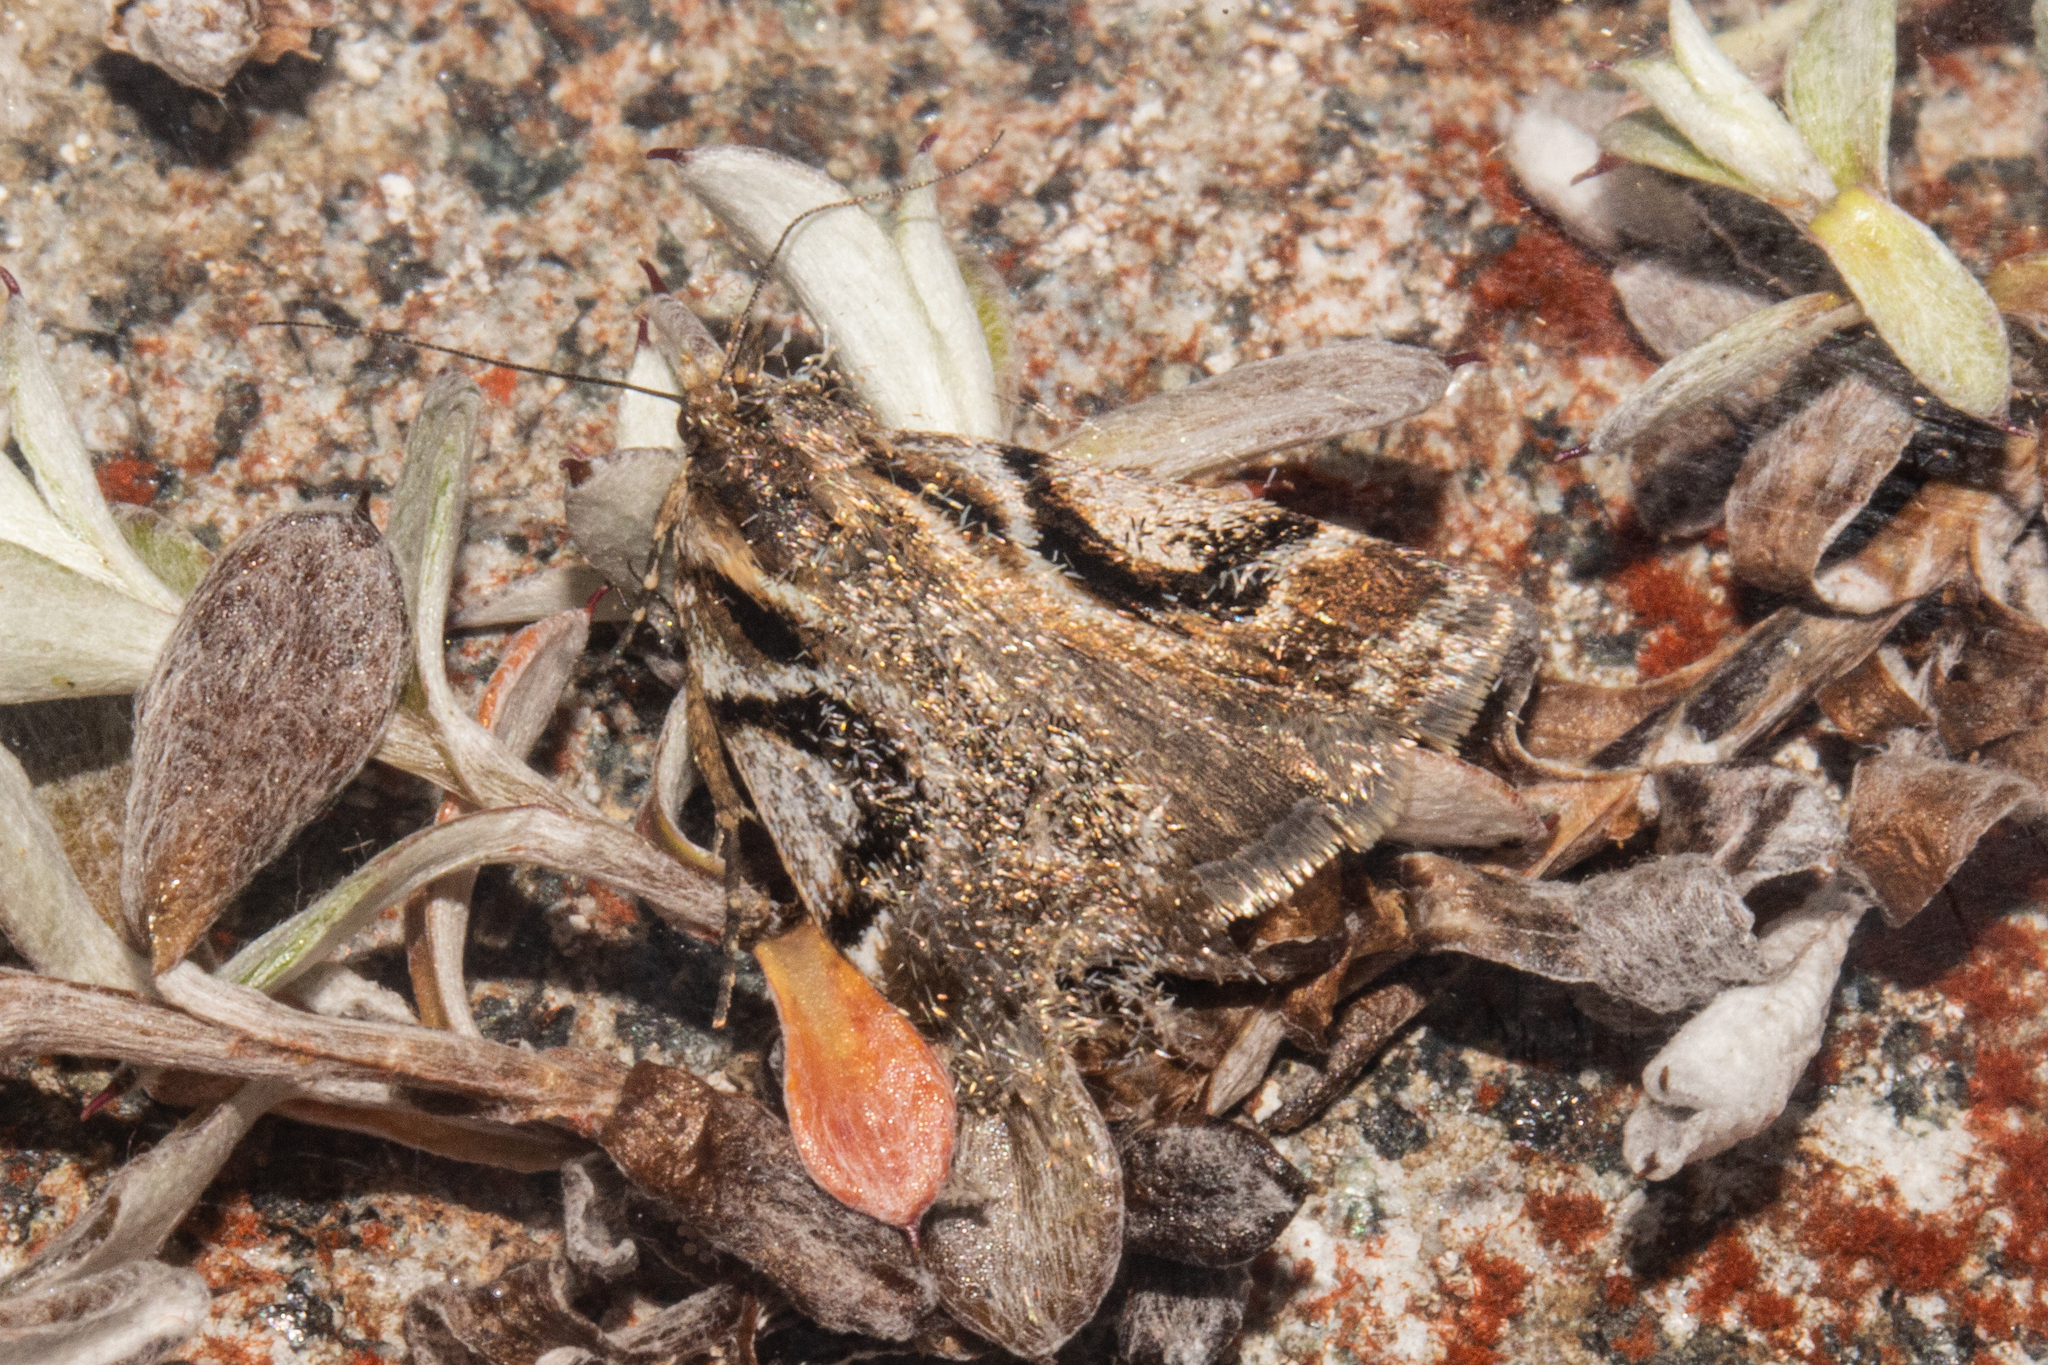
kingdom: Animalia
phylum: Arthropoda
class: Insecta
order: Lepidoptera
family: Crambidae
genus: Eudonia
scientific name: Eudonia hemicycla
